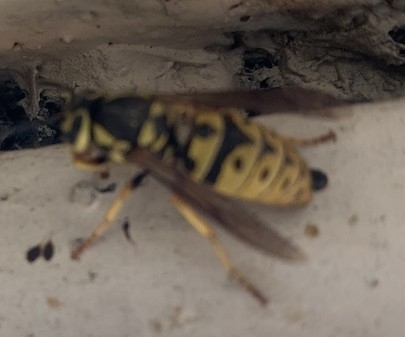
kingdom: Animalia
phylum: Arthropoda
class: Insecta
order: Hymenoptera
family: Vespidae
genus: Vespula
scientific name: Vespula pensylvanica
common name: Western yellowjacket
